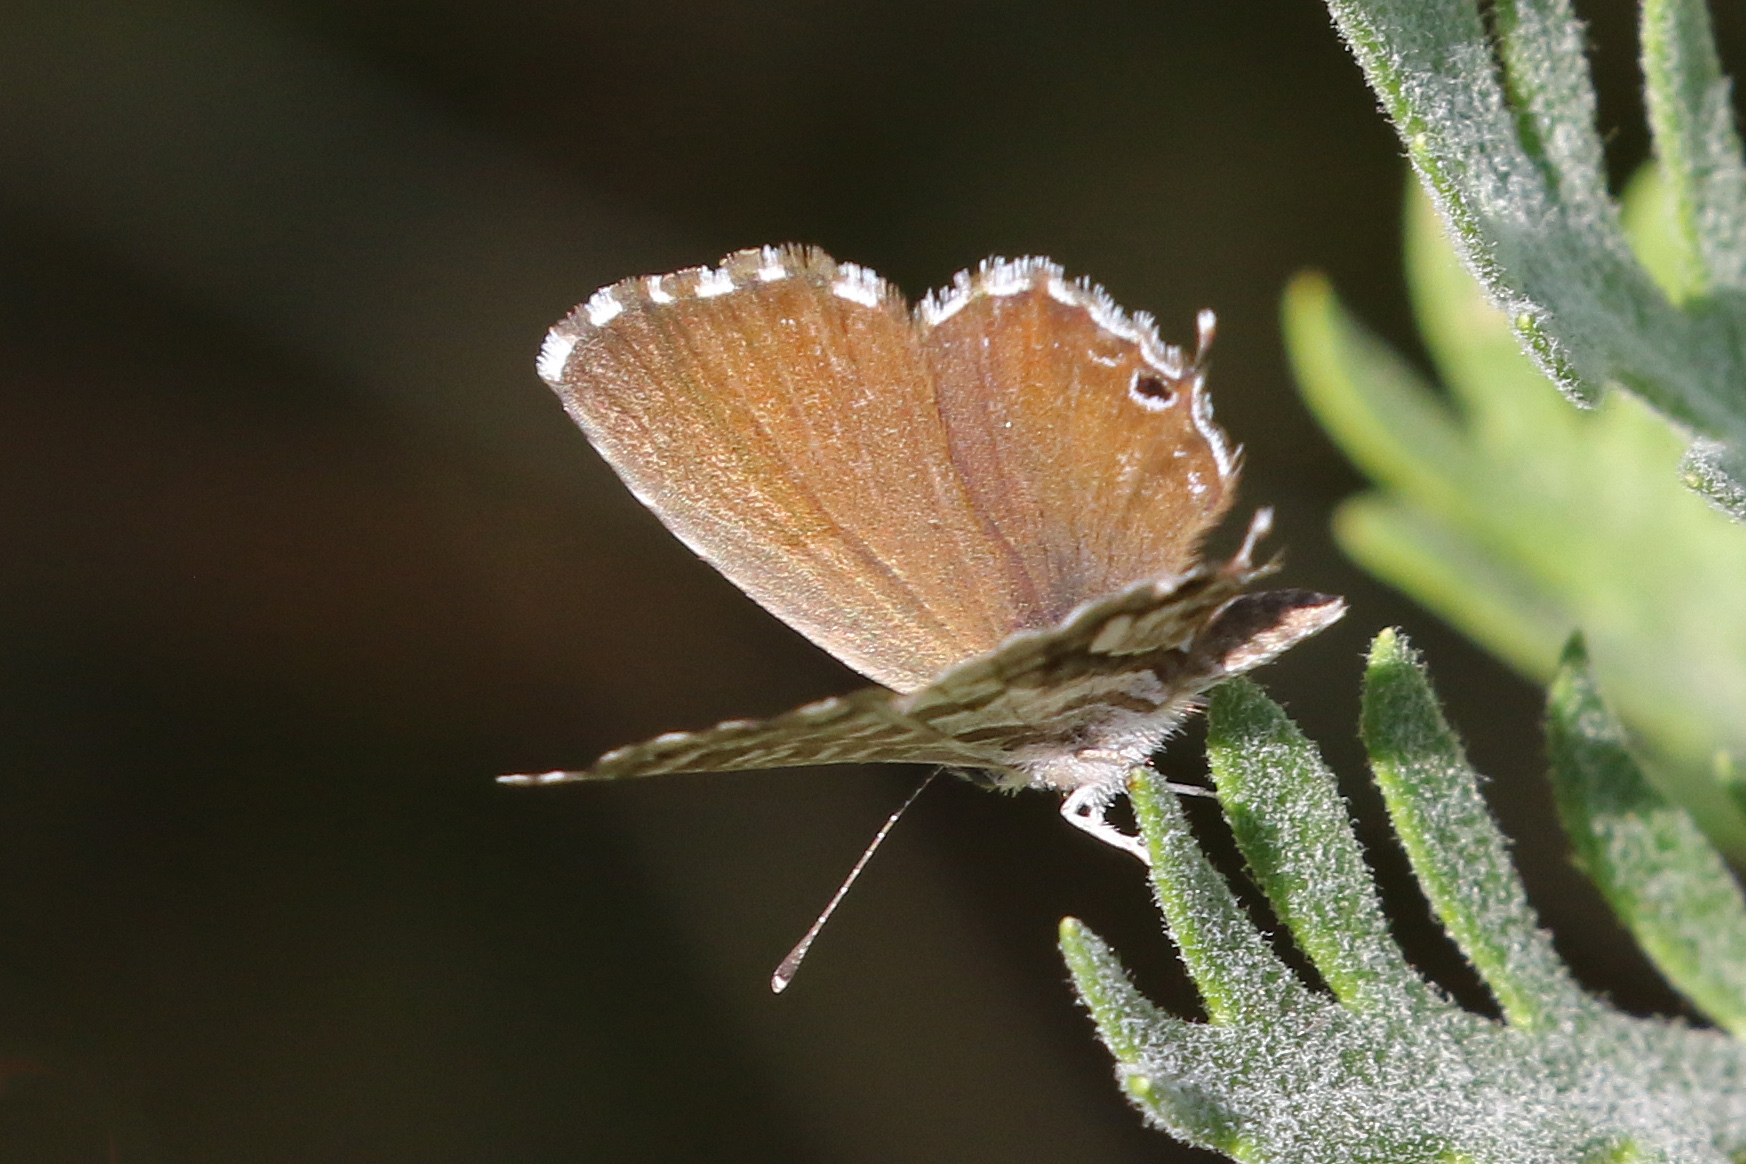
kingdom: Animalia
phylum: Arthropoda
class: Insecta
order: Lepidoptera
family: Lycaenidae
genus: Cacyreus
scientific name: Cacyreus marshalli
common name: Geranium bronze
